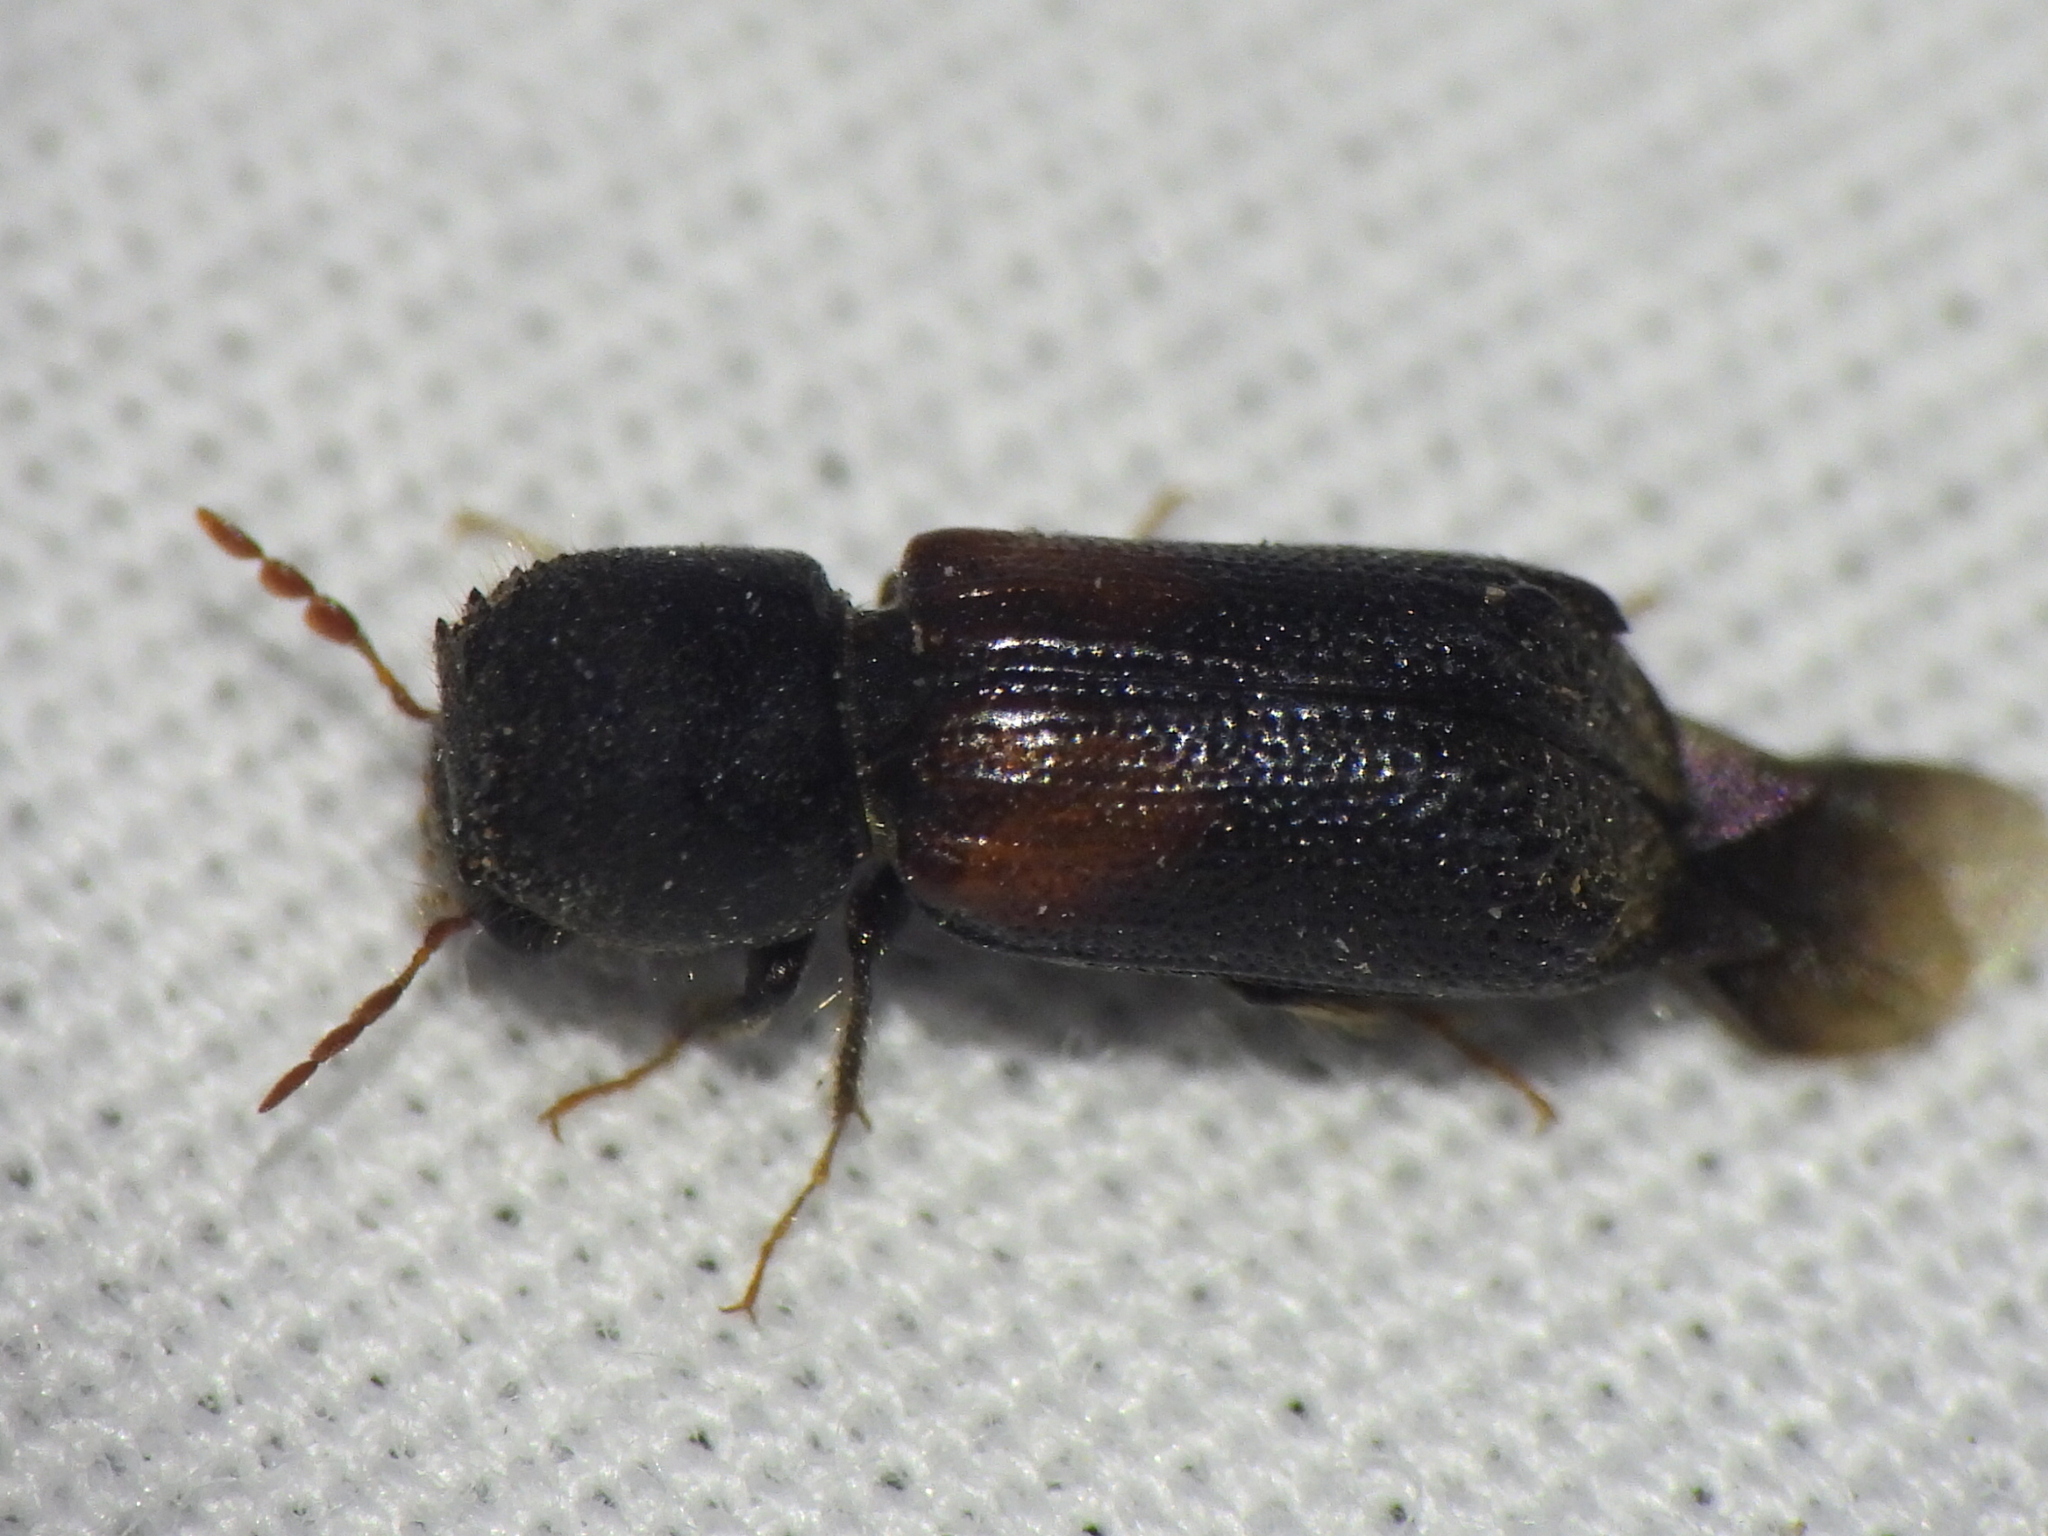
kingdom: Animalia
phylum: Arthropoda
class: Insecta
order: Coleoptera
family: Bostrichidae
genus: Xylobiops
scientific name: Xylobiops basilaris
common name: Red-shouldered bostrichid
